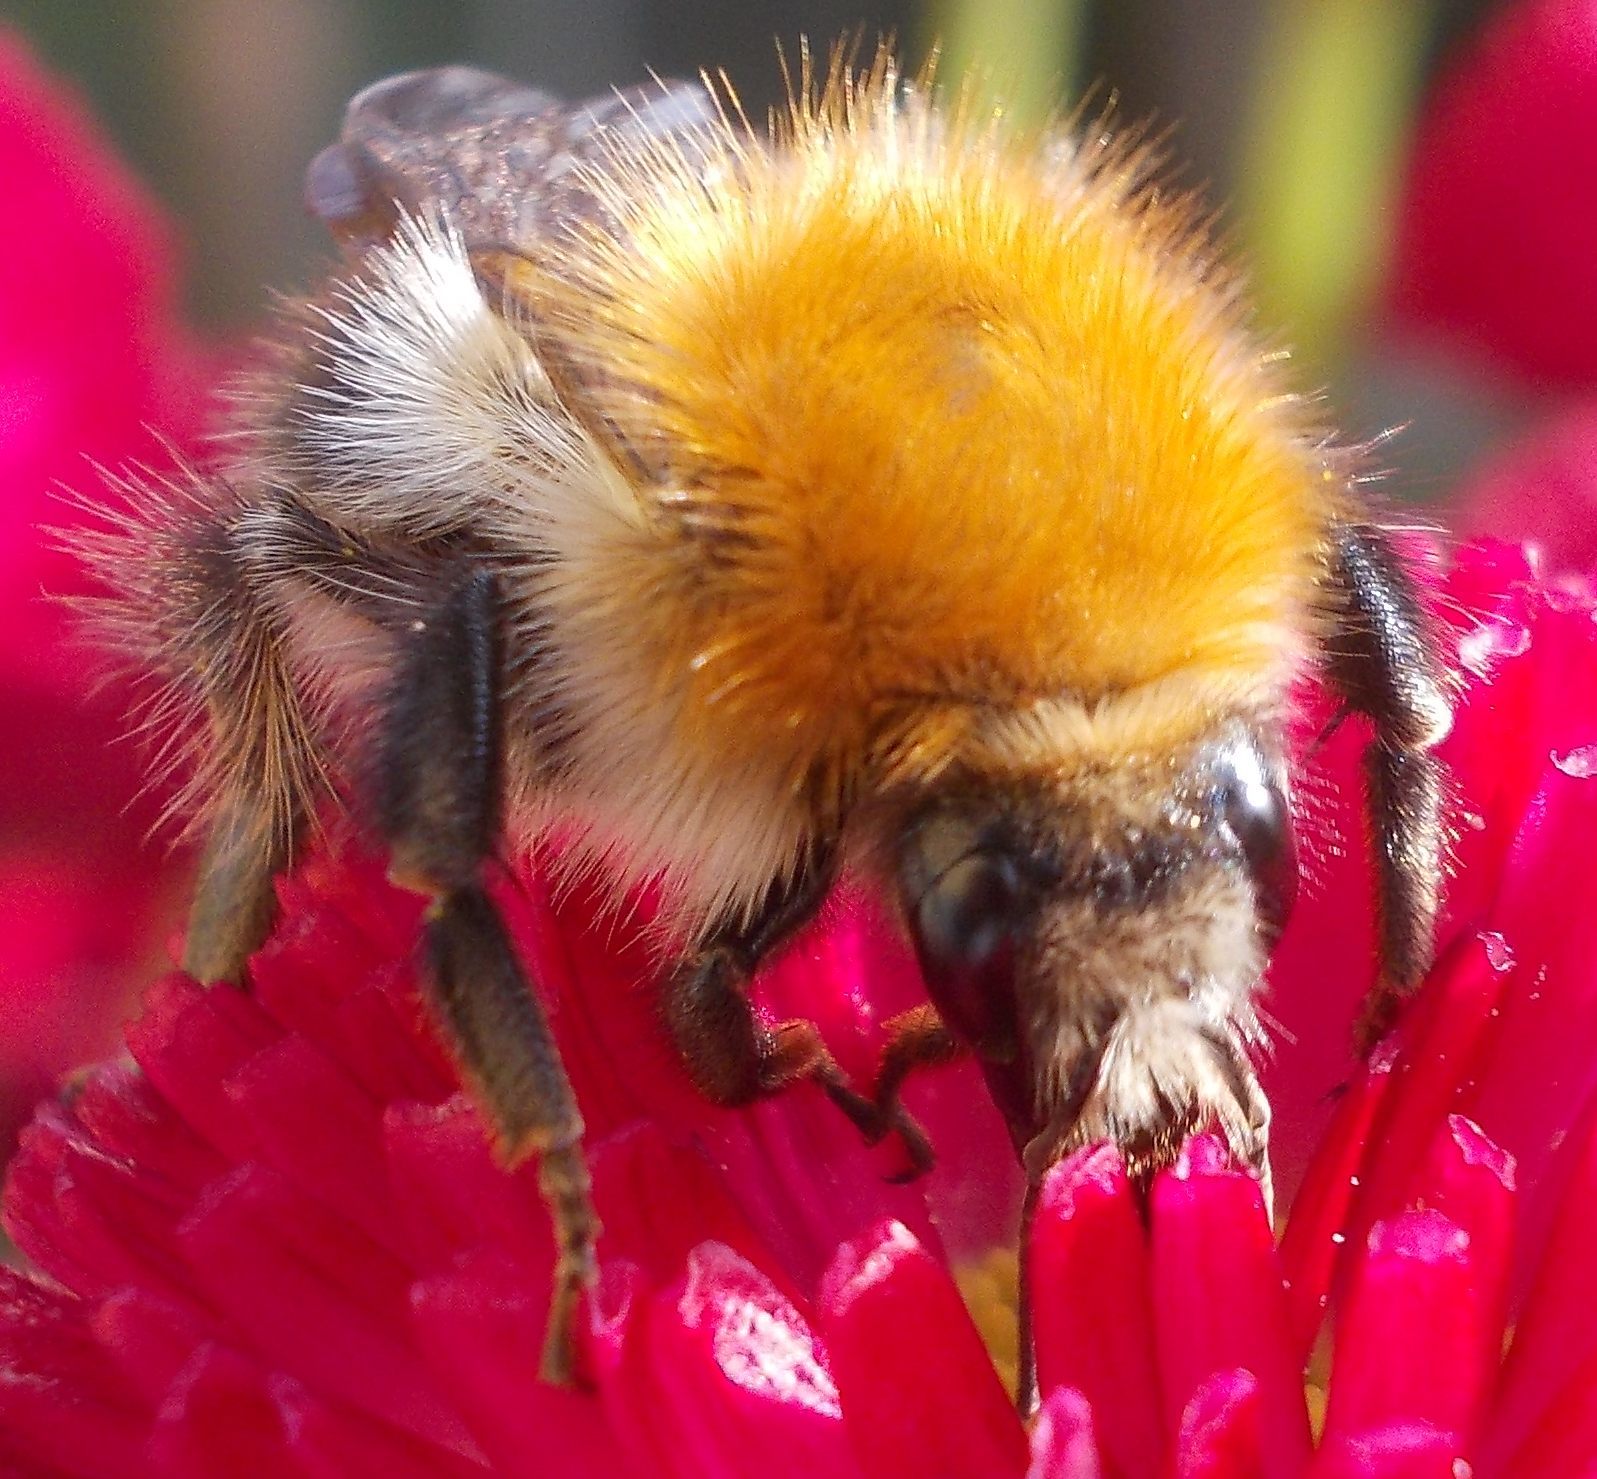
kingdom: Animalia
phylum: Arthropoda
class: Insecta
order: Hymenoptera
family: Apidae
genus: Bombus
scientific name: Bombus pascuorum
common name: Common carder bee
